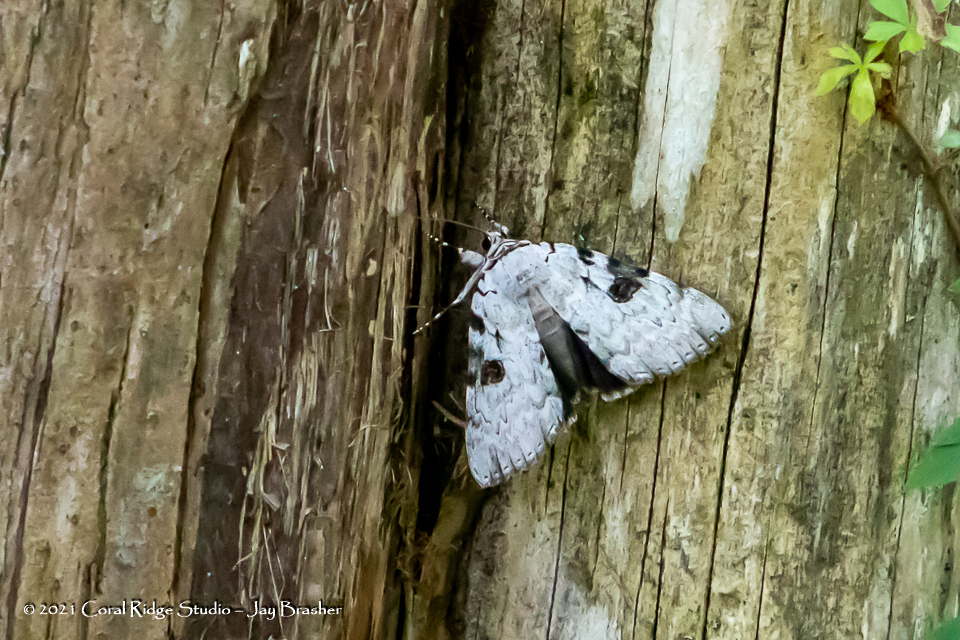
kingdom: Animalia
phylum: Arthropoda
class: Insecta
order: Lepidoptera
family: Erebidae
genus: Catocala
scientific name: Catocala sappho
